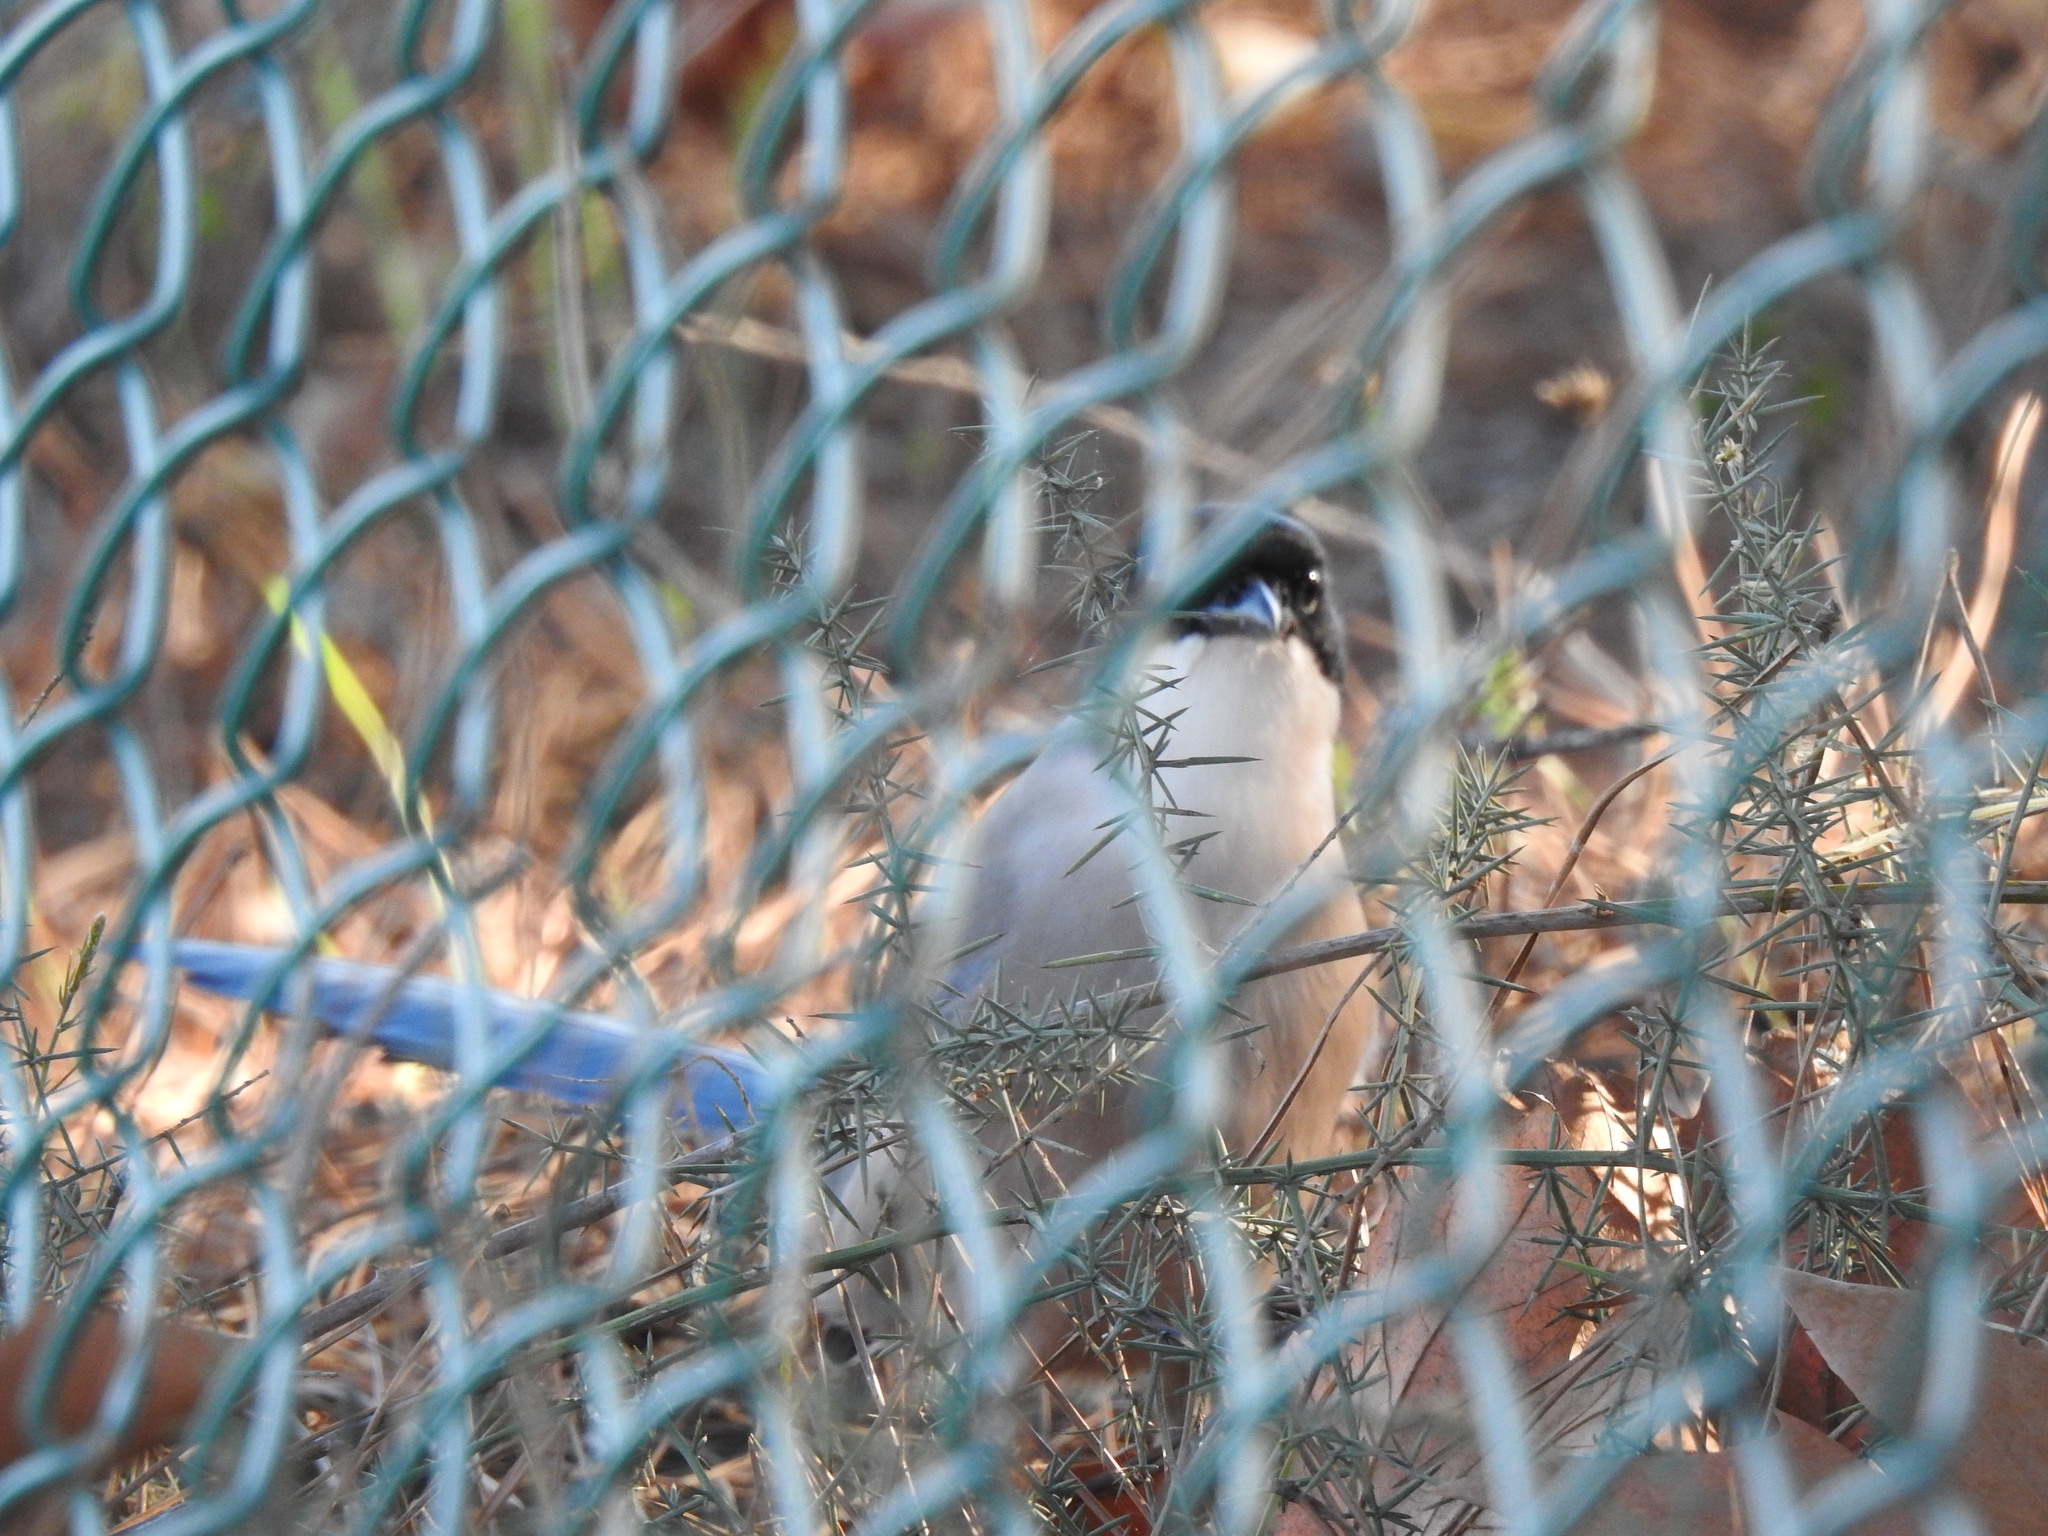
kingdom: Animalia
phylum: Chordata
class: Aves
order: Passeriformes
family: Corvidae
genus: Cyanopica
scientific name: Cyanopica cooki
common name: Iberian magpie
